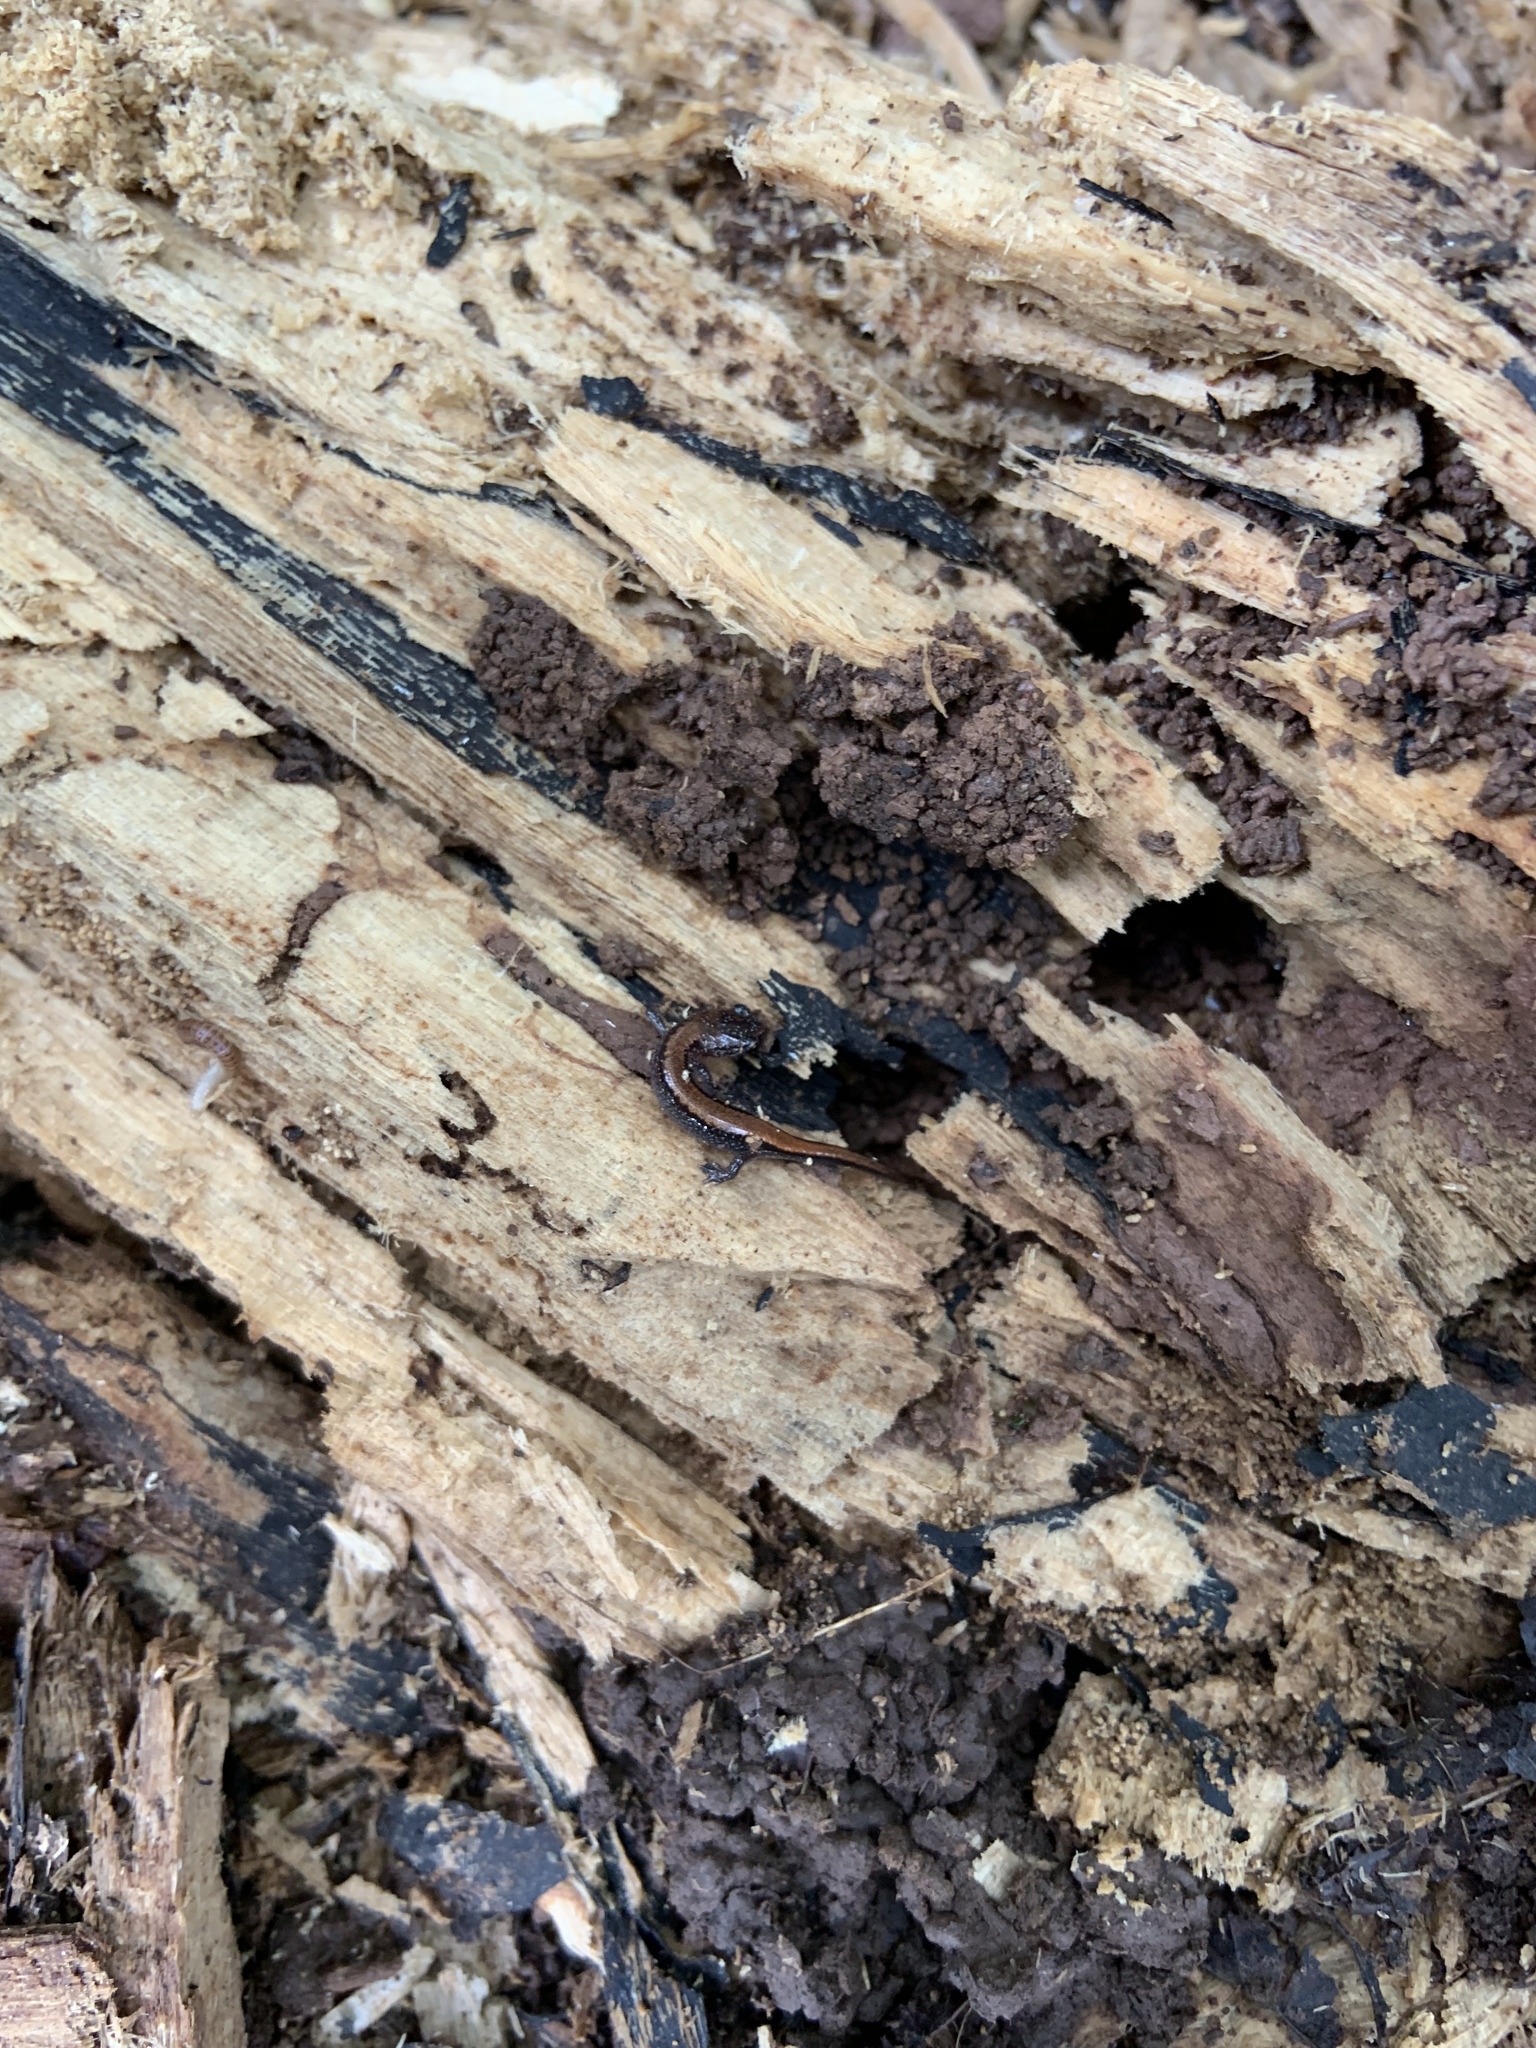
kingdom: Animalia
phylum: Chordata
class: Amphibia
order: Caudata
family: Plethodontidae
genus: Plethodon
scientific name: Plethodon cinereus
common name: Redback salamander
